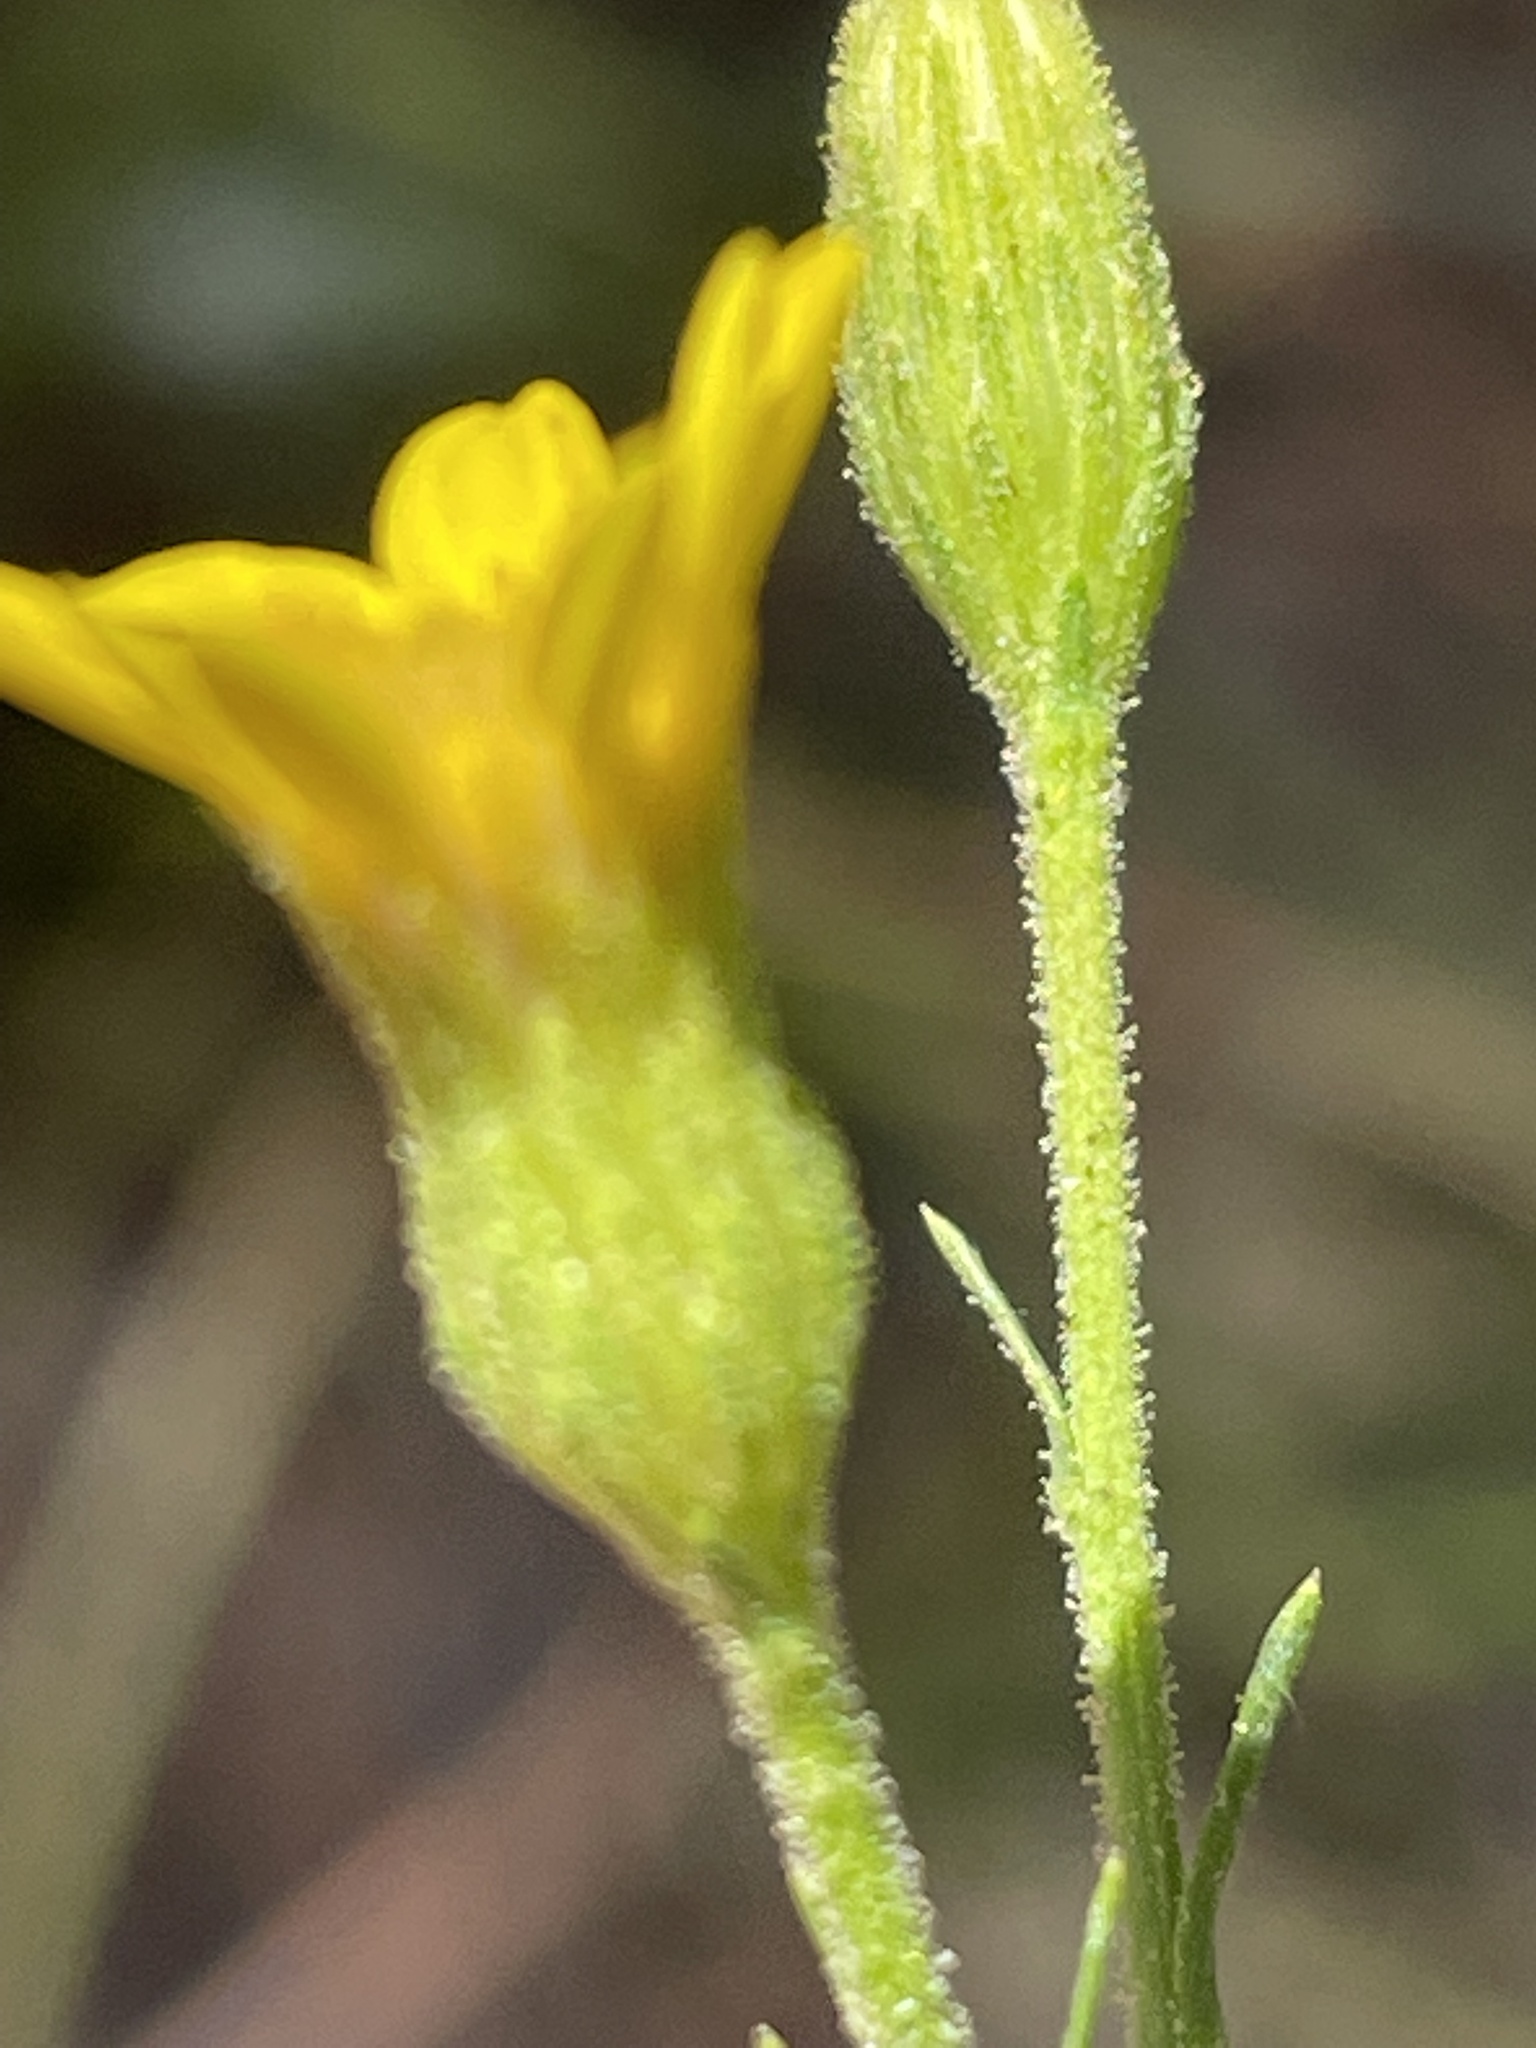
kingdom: Plantae
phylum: Tracheophyta
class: Magnoliopsida
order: Asterales
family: Asteraceae
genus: Pityopsis
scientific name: Pityopsis aspera
